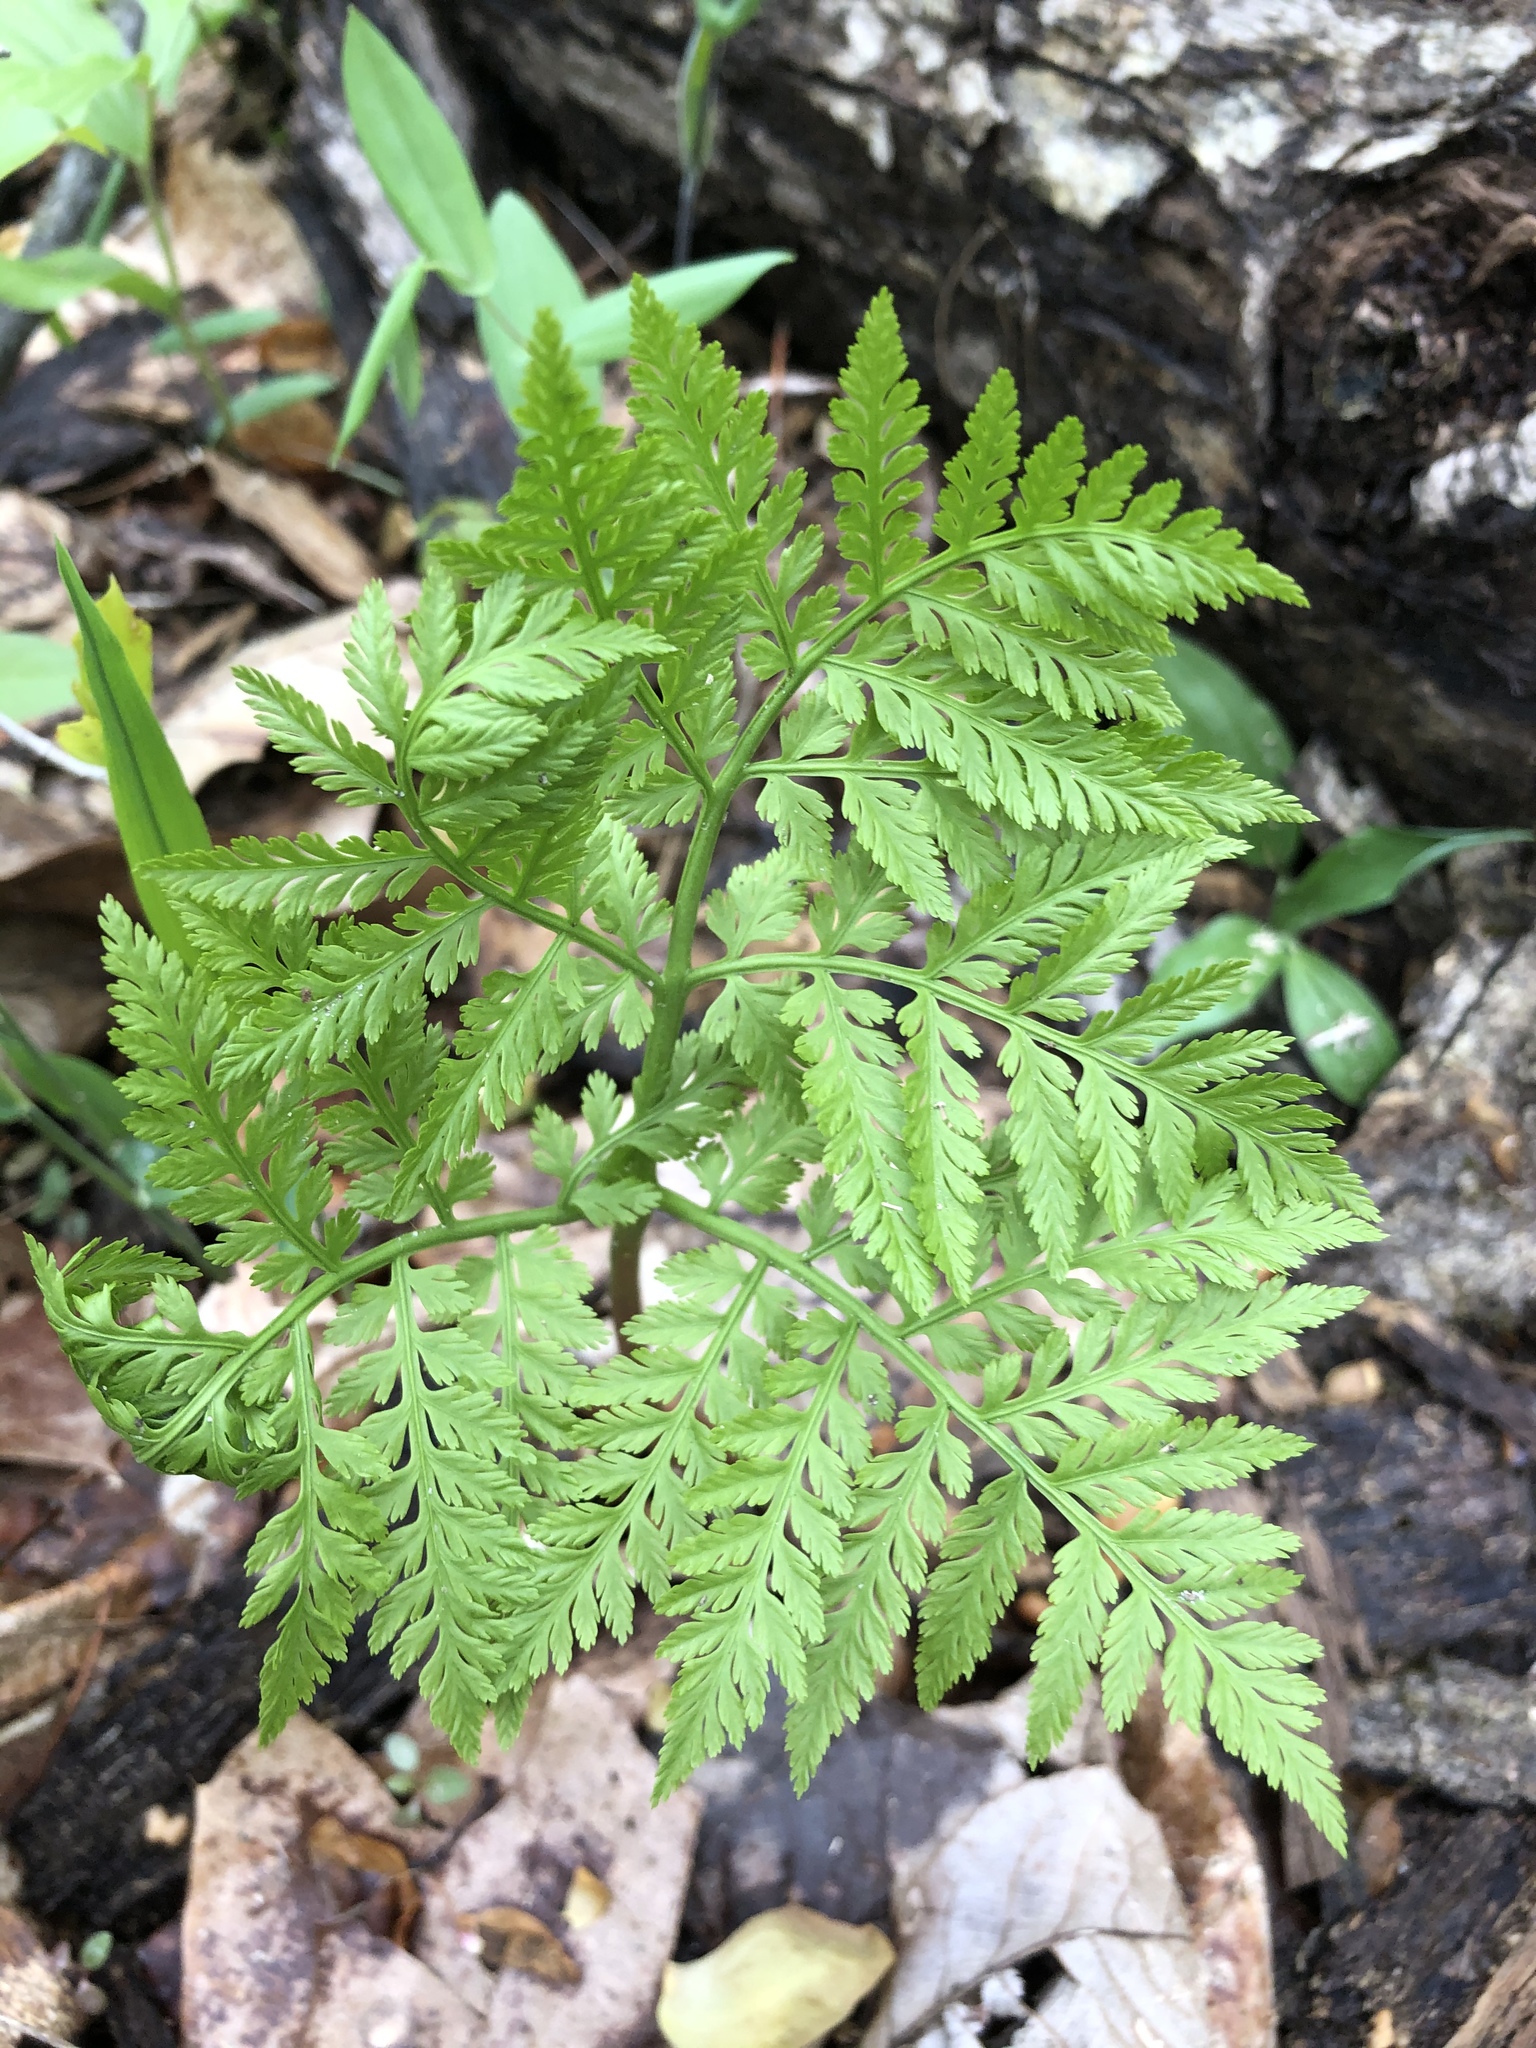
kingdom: Plantae
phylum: Tracheophyta
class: Polypodiopsida
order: Ophioglossales
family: Ophioglossaceae
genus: Botrypus
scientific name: Botrypus virginianus
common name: Common grapefern
